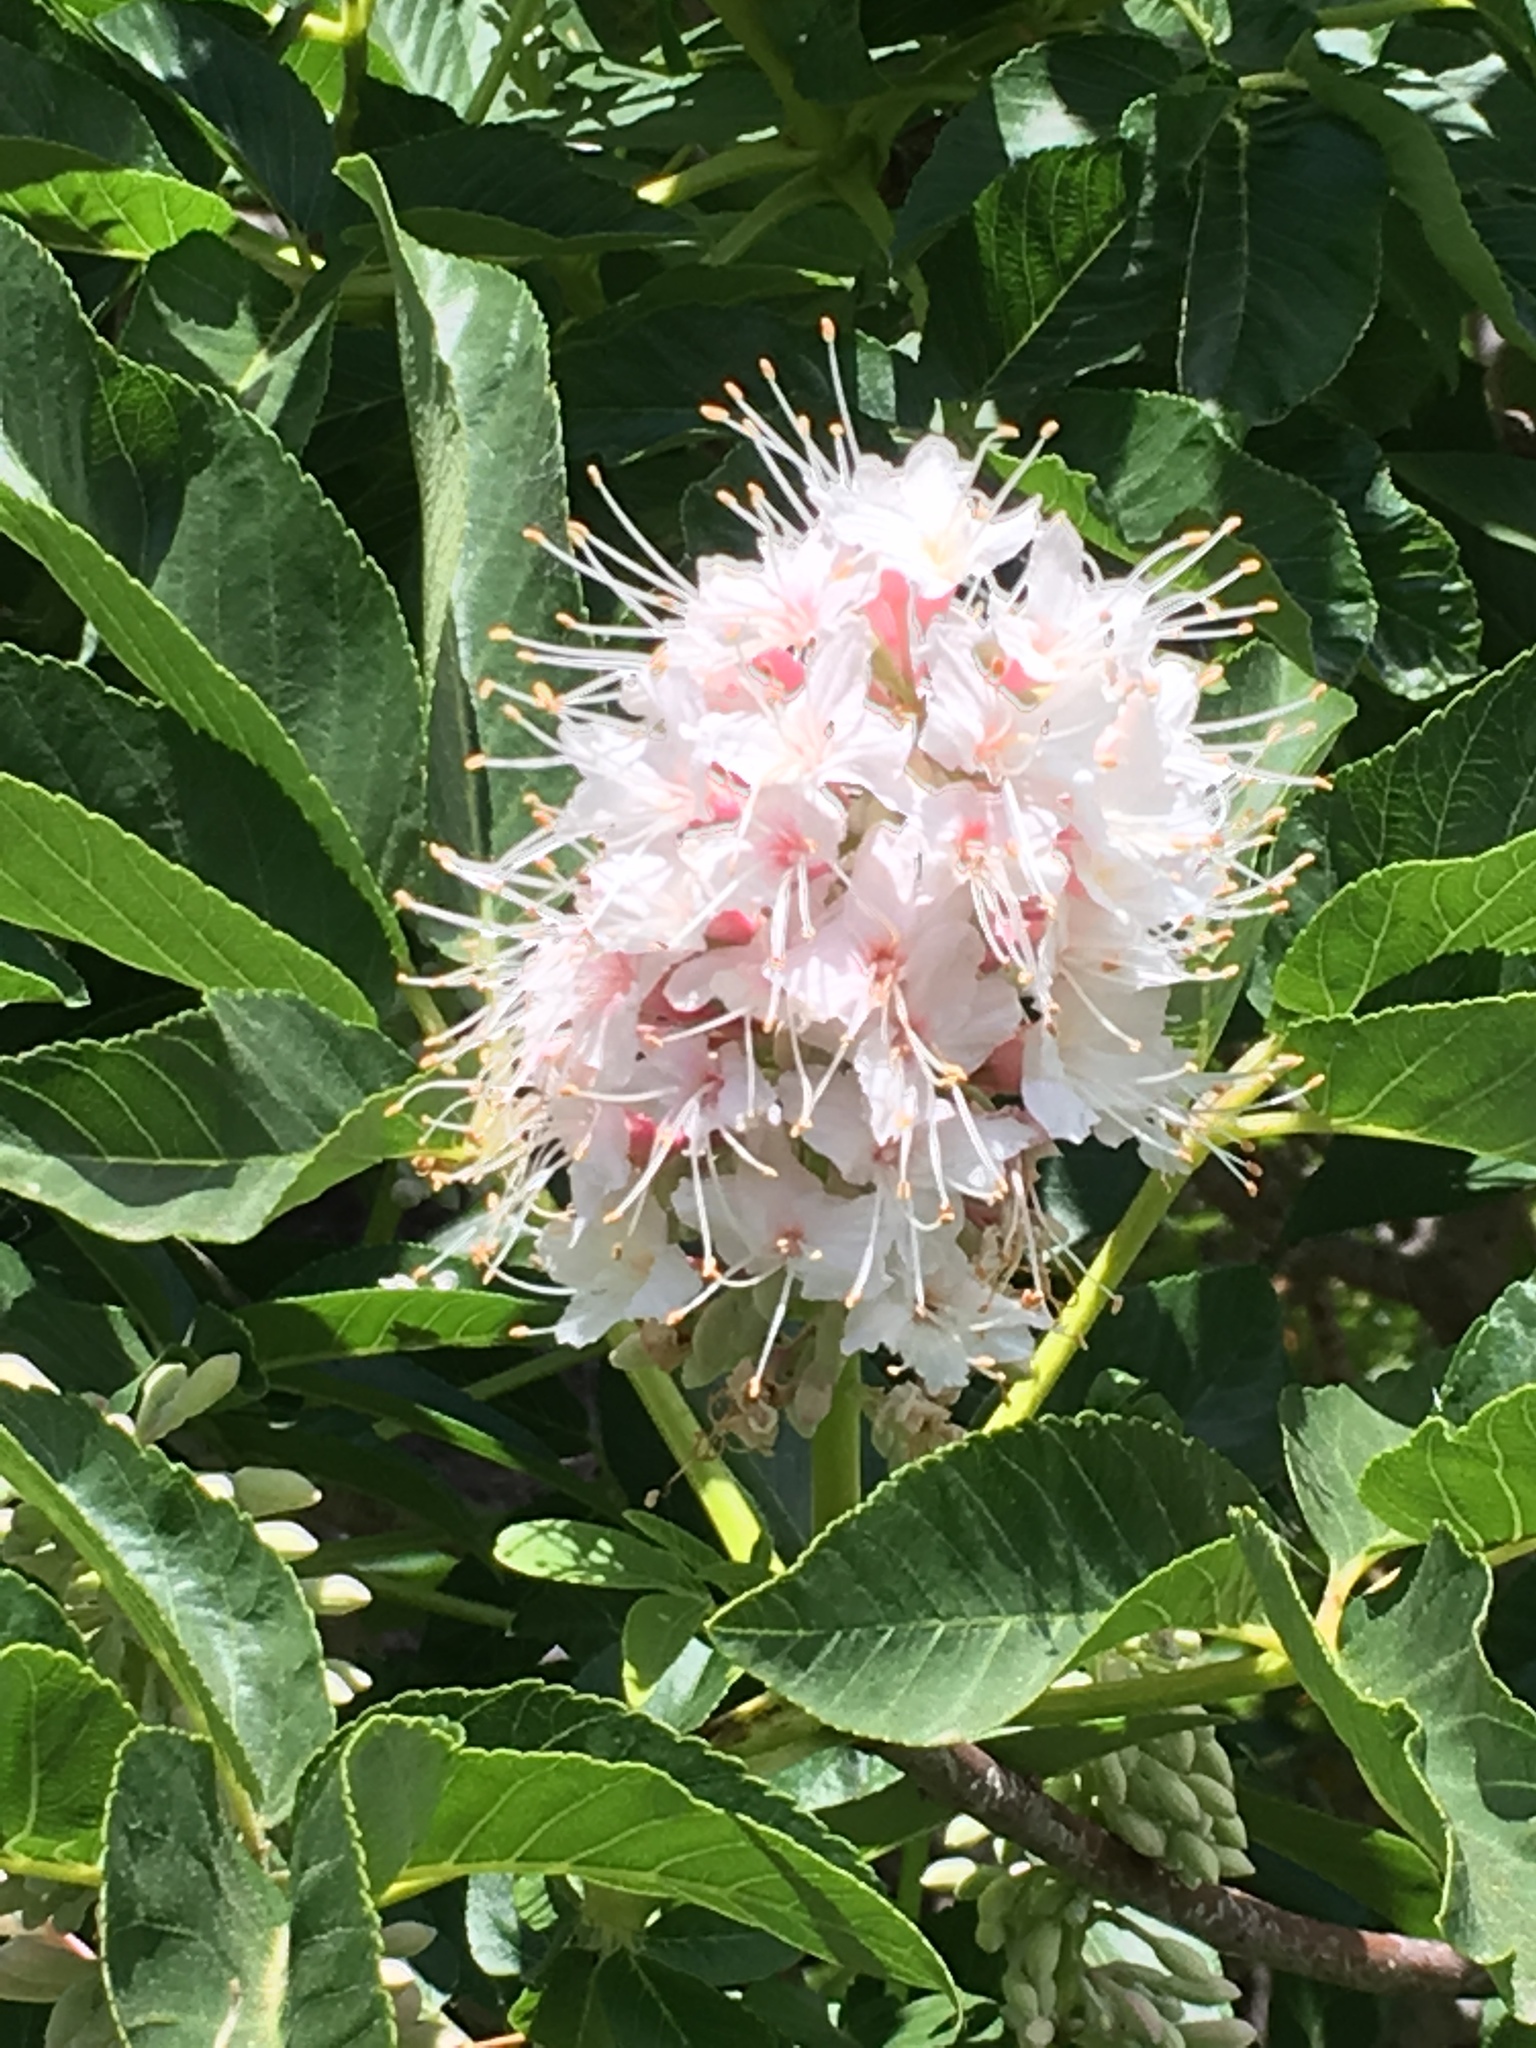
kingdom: Plantae
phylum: Tracheophyta
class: Magnoliopsida
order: Sapindales
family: Sapindaceae
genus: Aesculus
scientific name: Aesculus californica
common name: California buckeye
